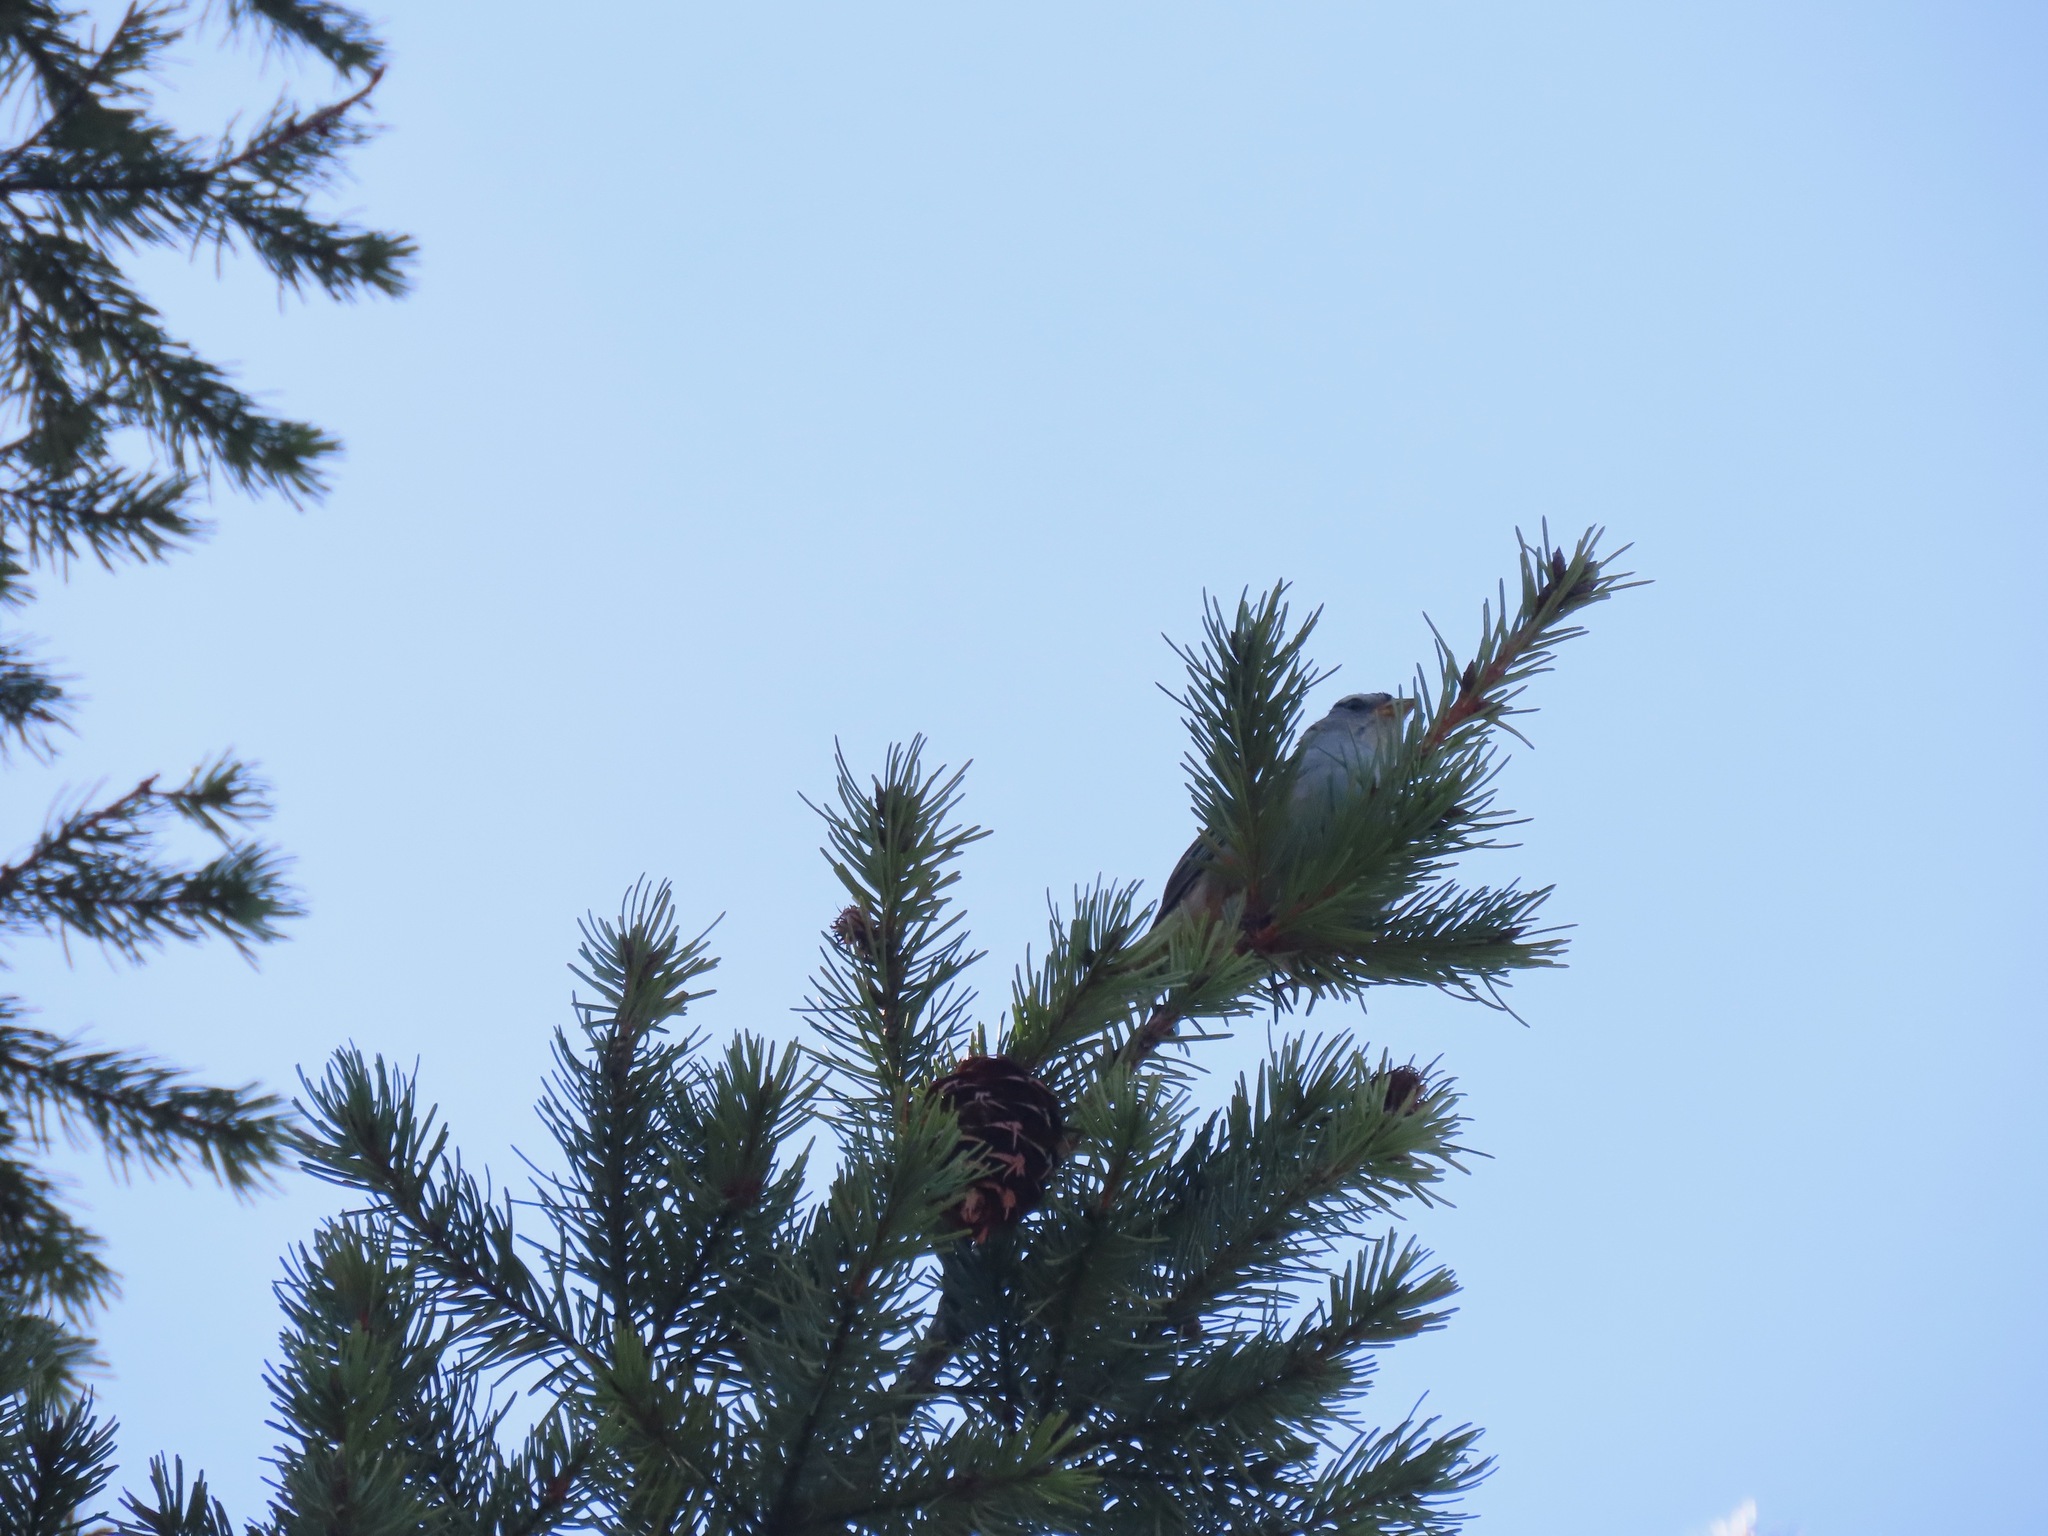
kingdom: Animalia
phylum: Chordata
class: Aves
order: Passeriformes
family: Passerellidae
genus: Zonotrichia
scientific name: Zonotrichia leucophrys
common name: White-crowned sparrow
